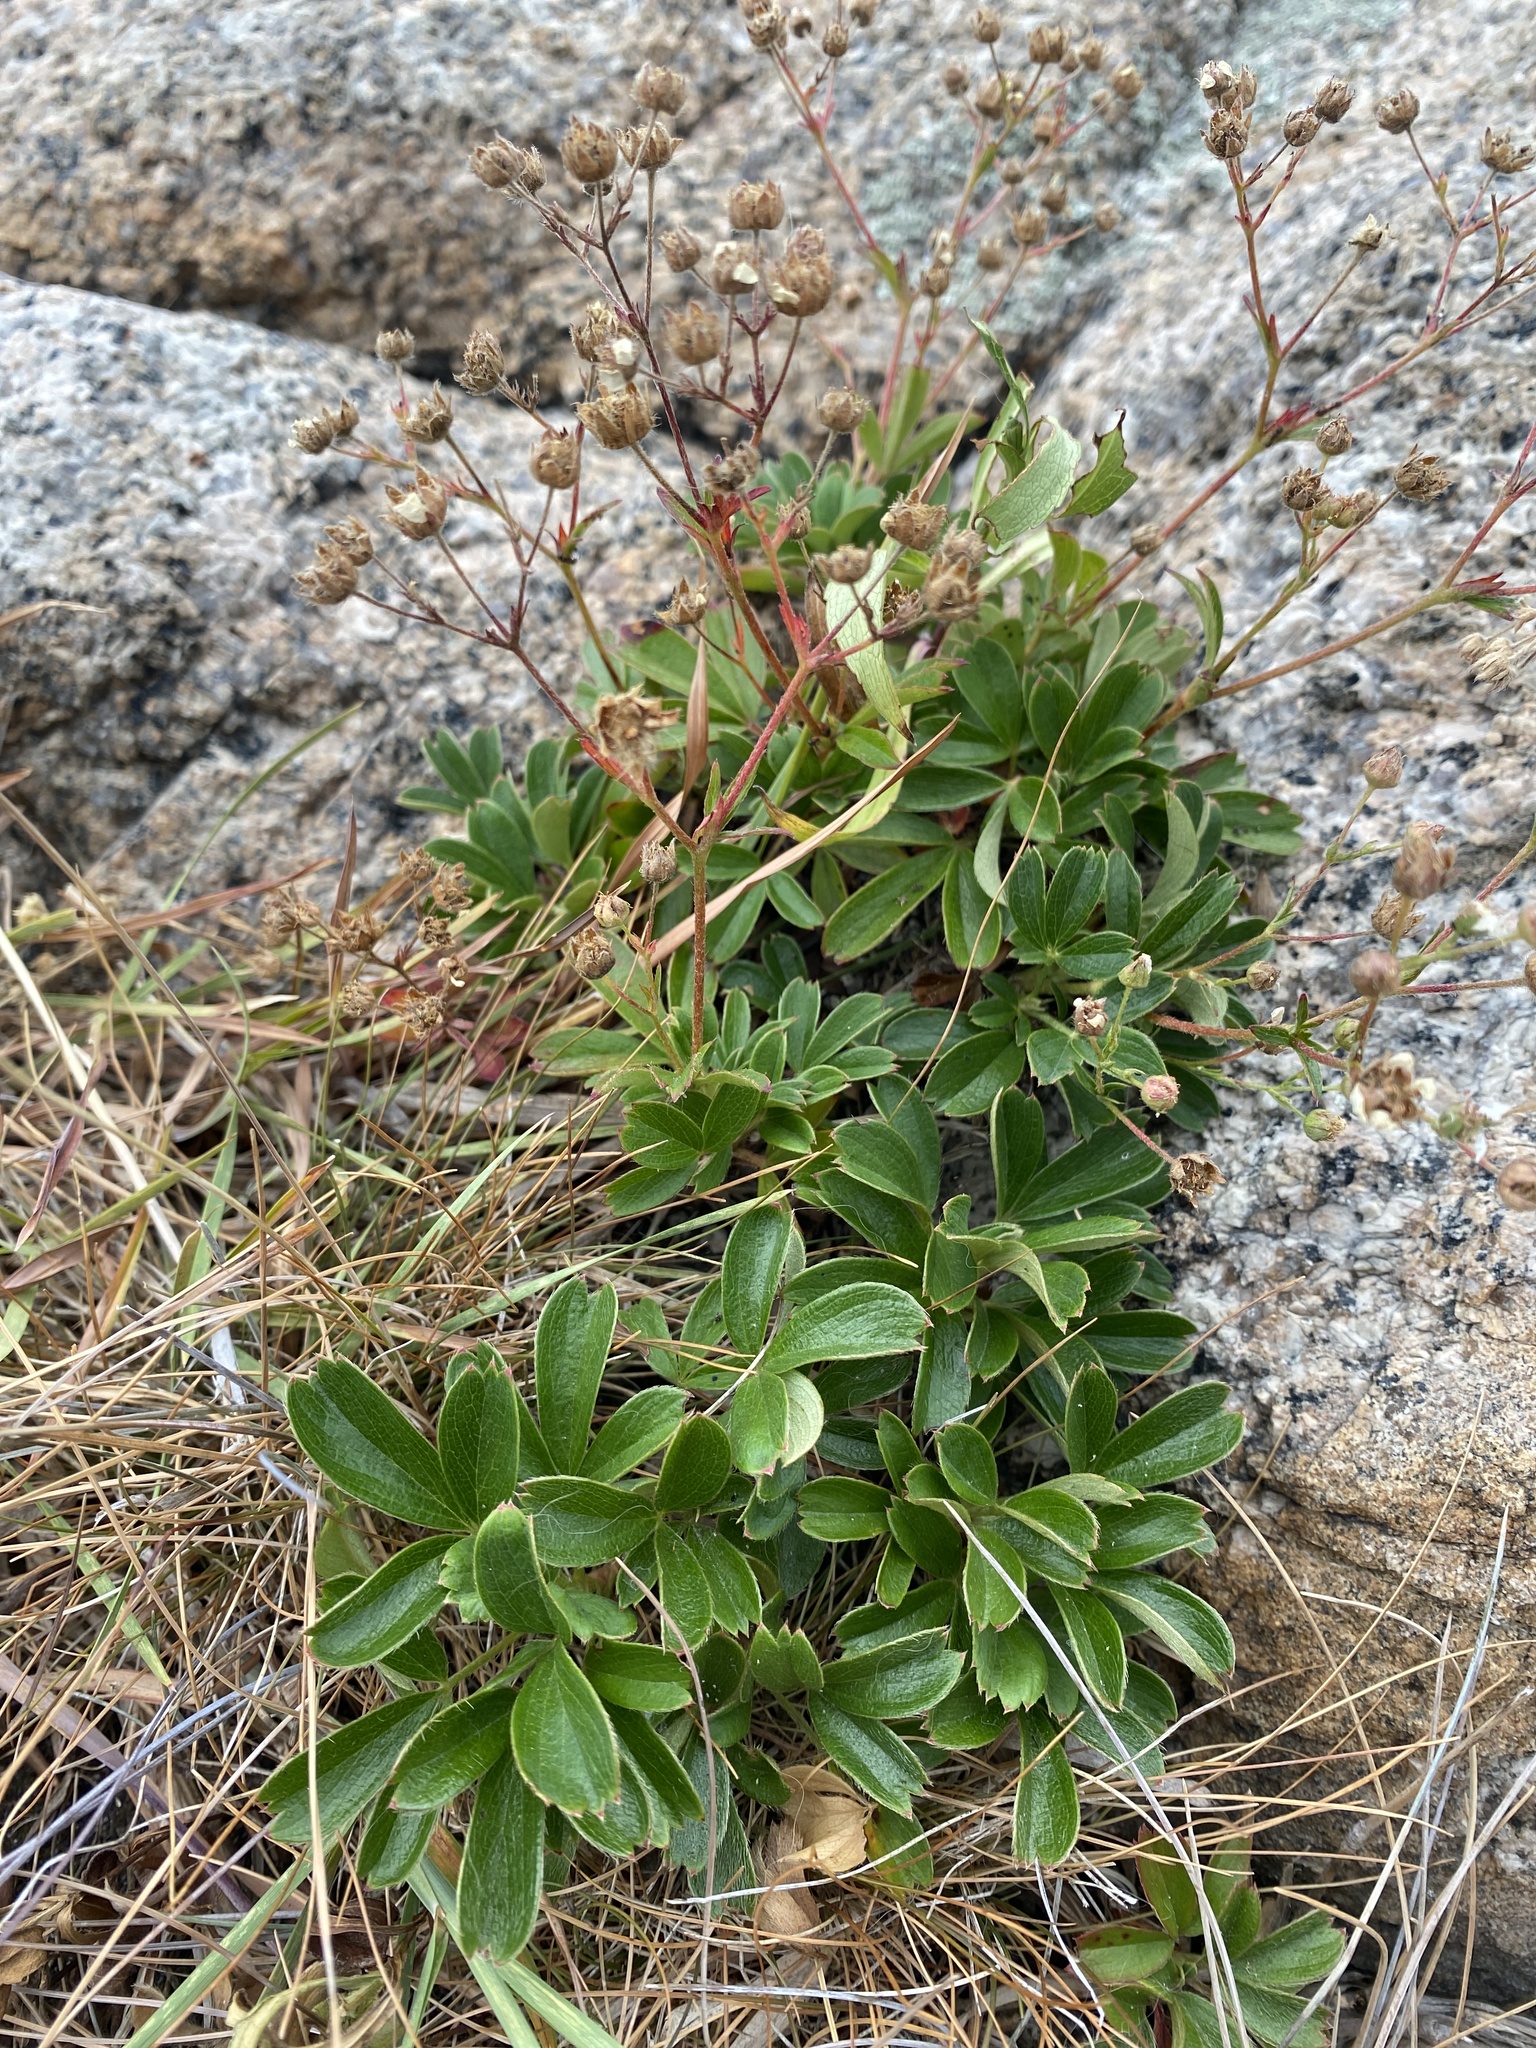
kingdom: Plantae
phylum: Tracheophyta
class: Magnoliopsida
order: Rosales
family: Rosaceae
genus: Sibbaldia
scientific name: Sibbaldia tridentata
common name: Three-toothed cinquefoil
